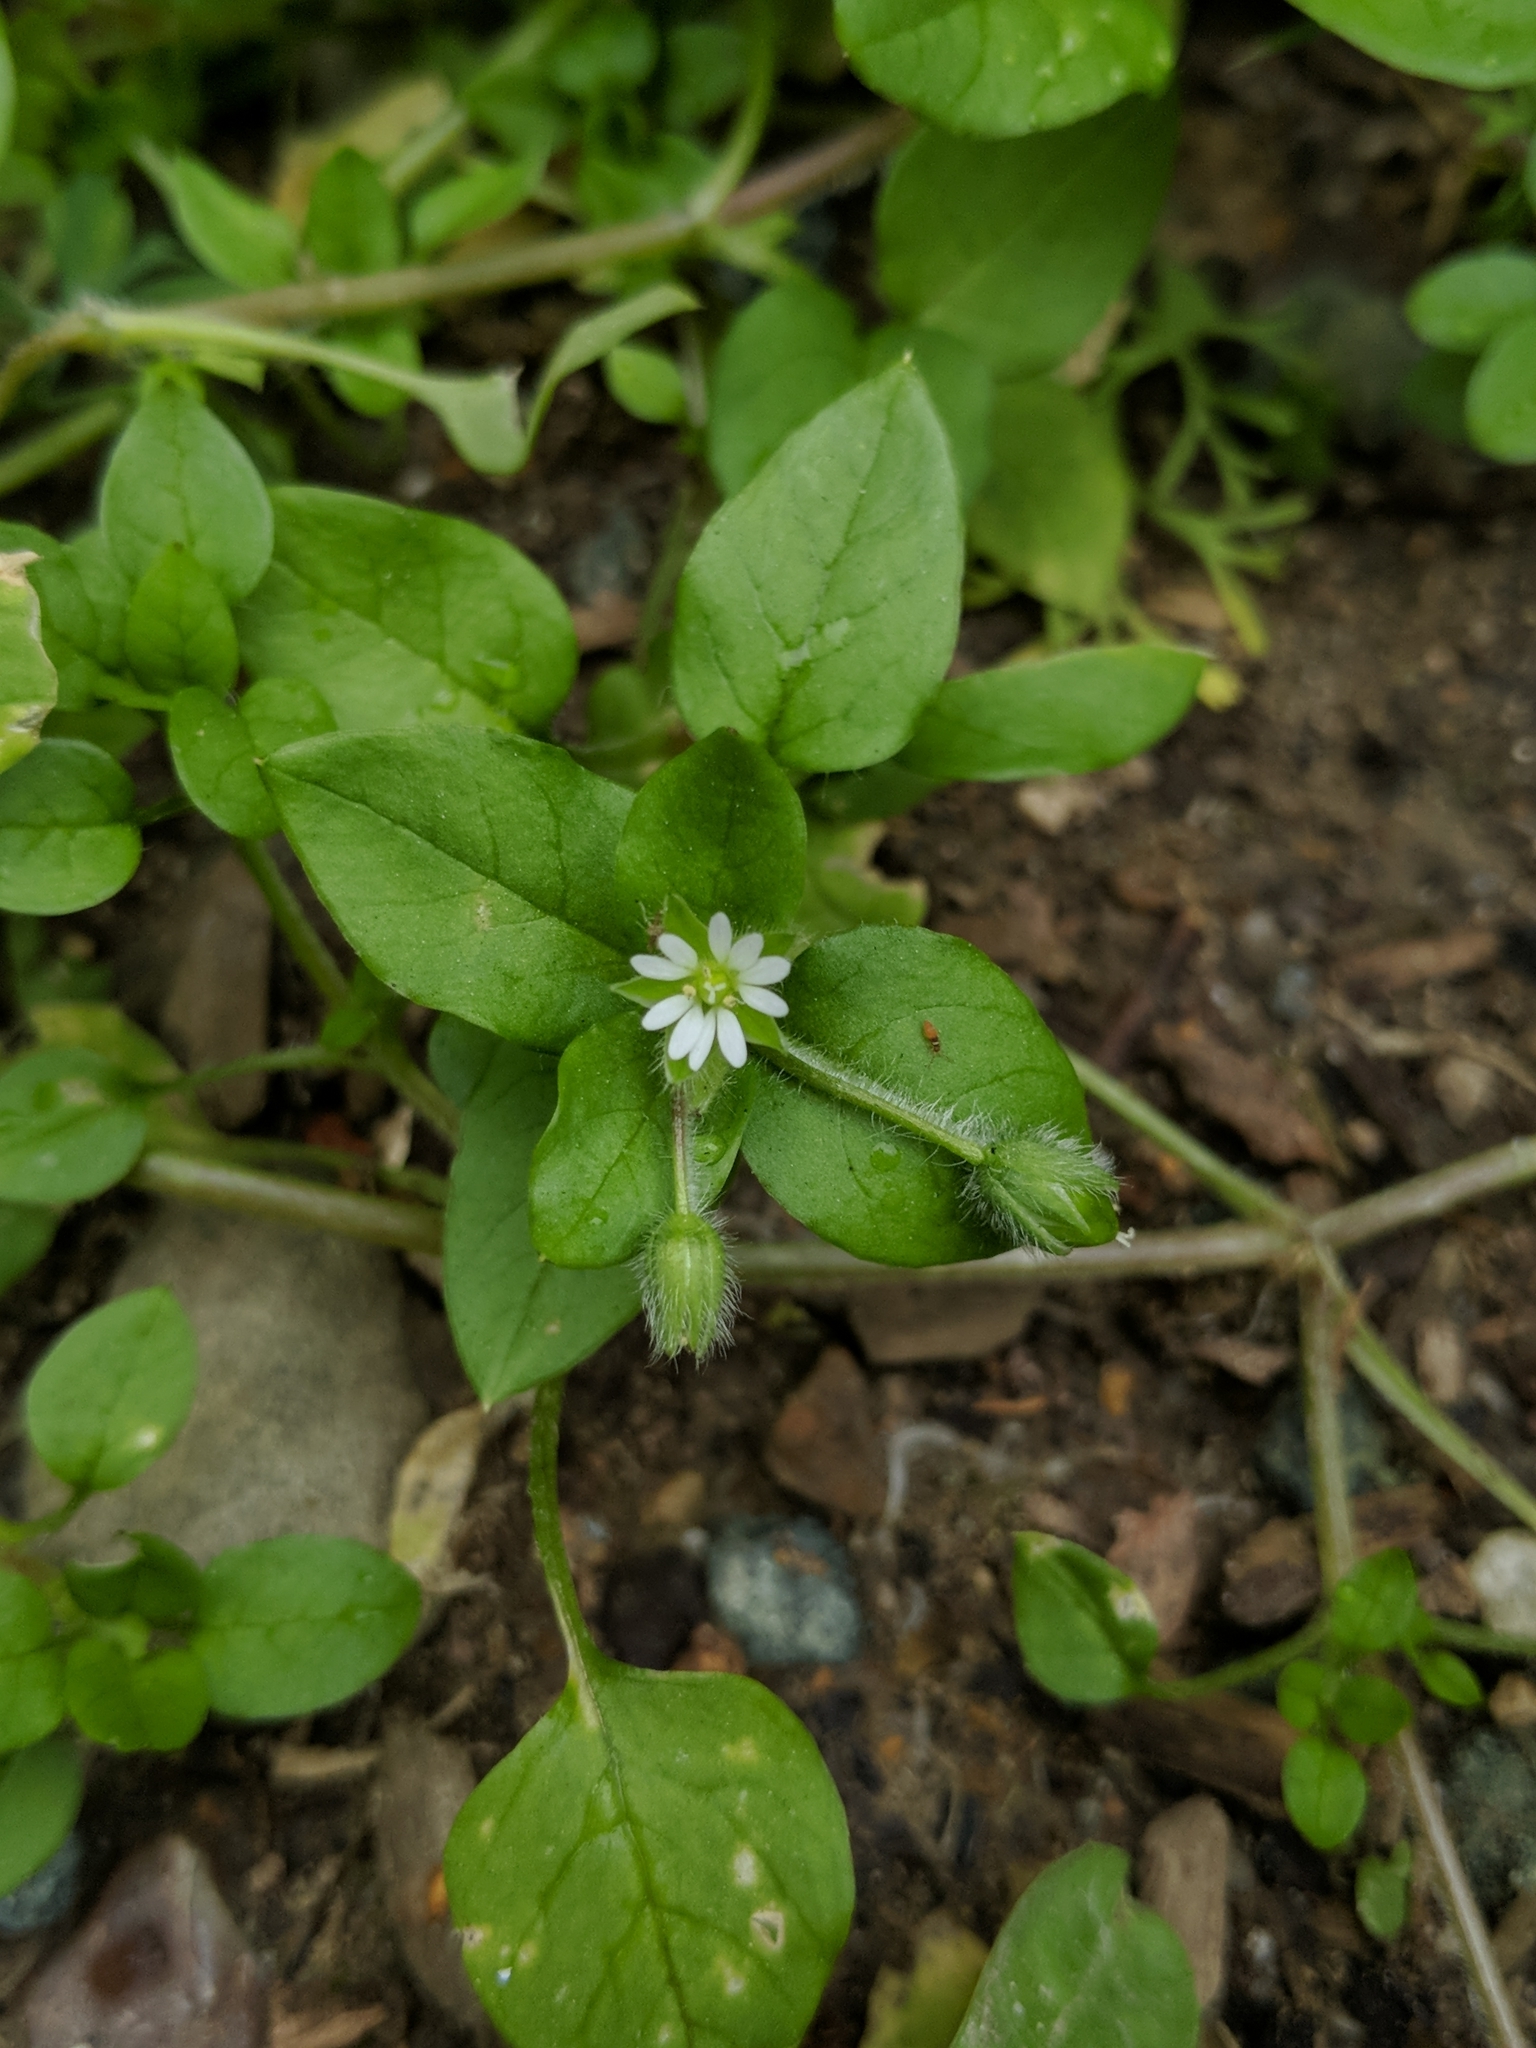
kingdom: Plantae
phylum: Tracheophyta
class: Magnoliopsida
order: Caryophyllales
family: Caryophyllaceae
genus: Stellaria
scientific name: Stellaria media
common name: Common chickweed
